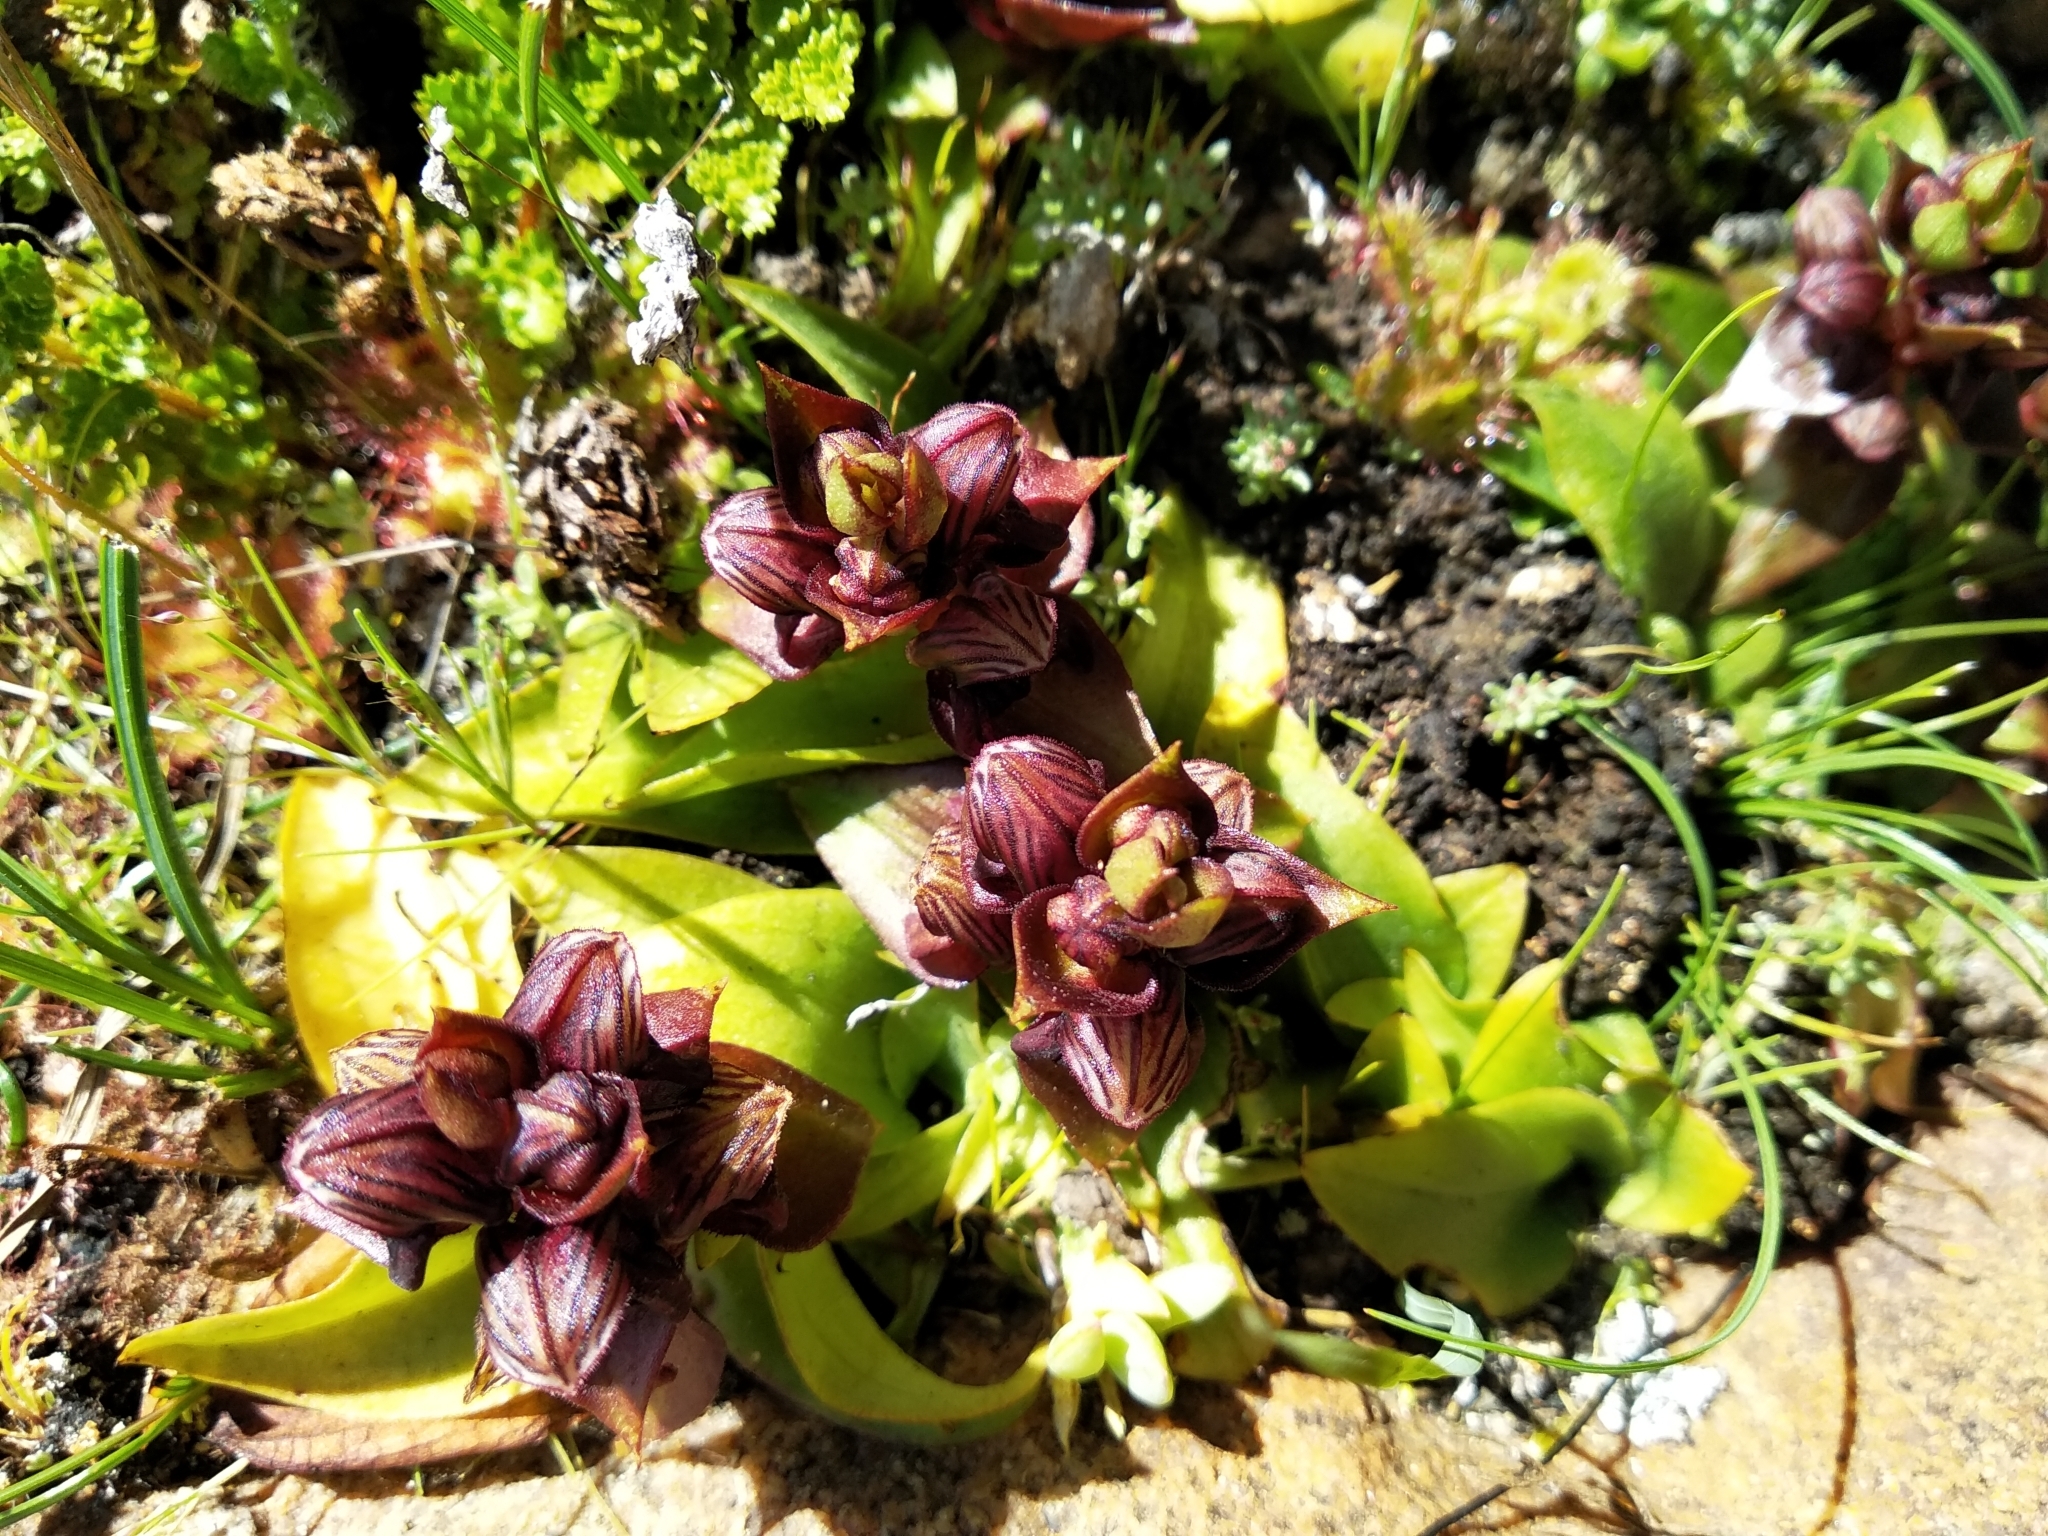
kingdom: Plantae
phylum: Tracheophyta
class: Liliopsida
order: Asparagales
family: Orchidaceae
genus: Satyrium
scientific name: Satyrium bracteatum
